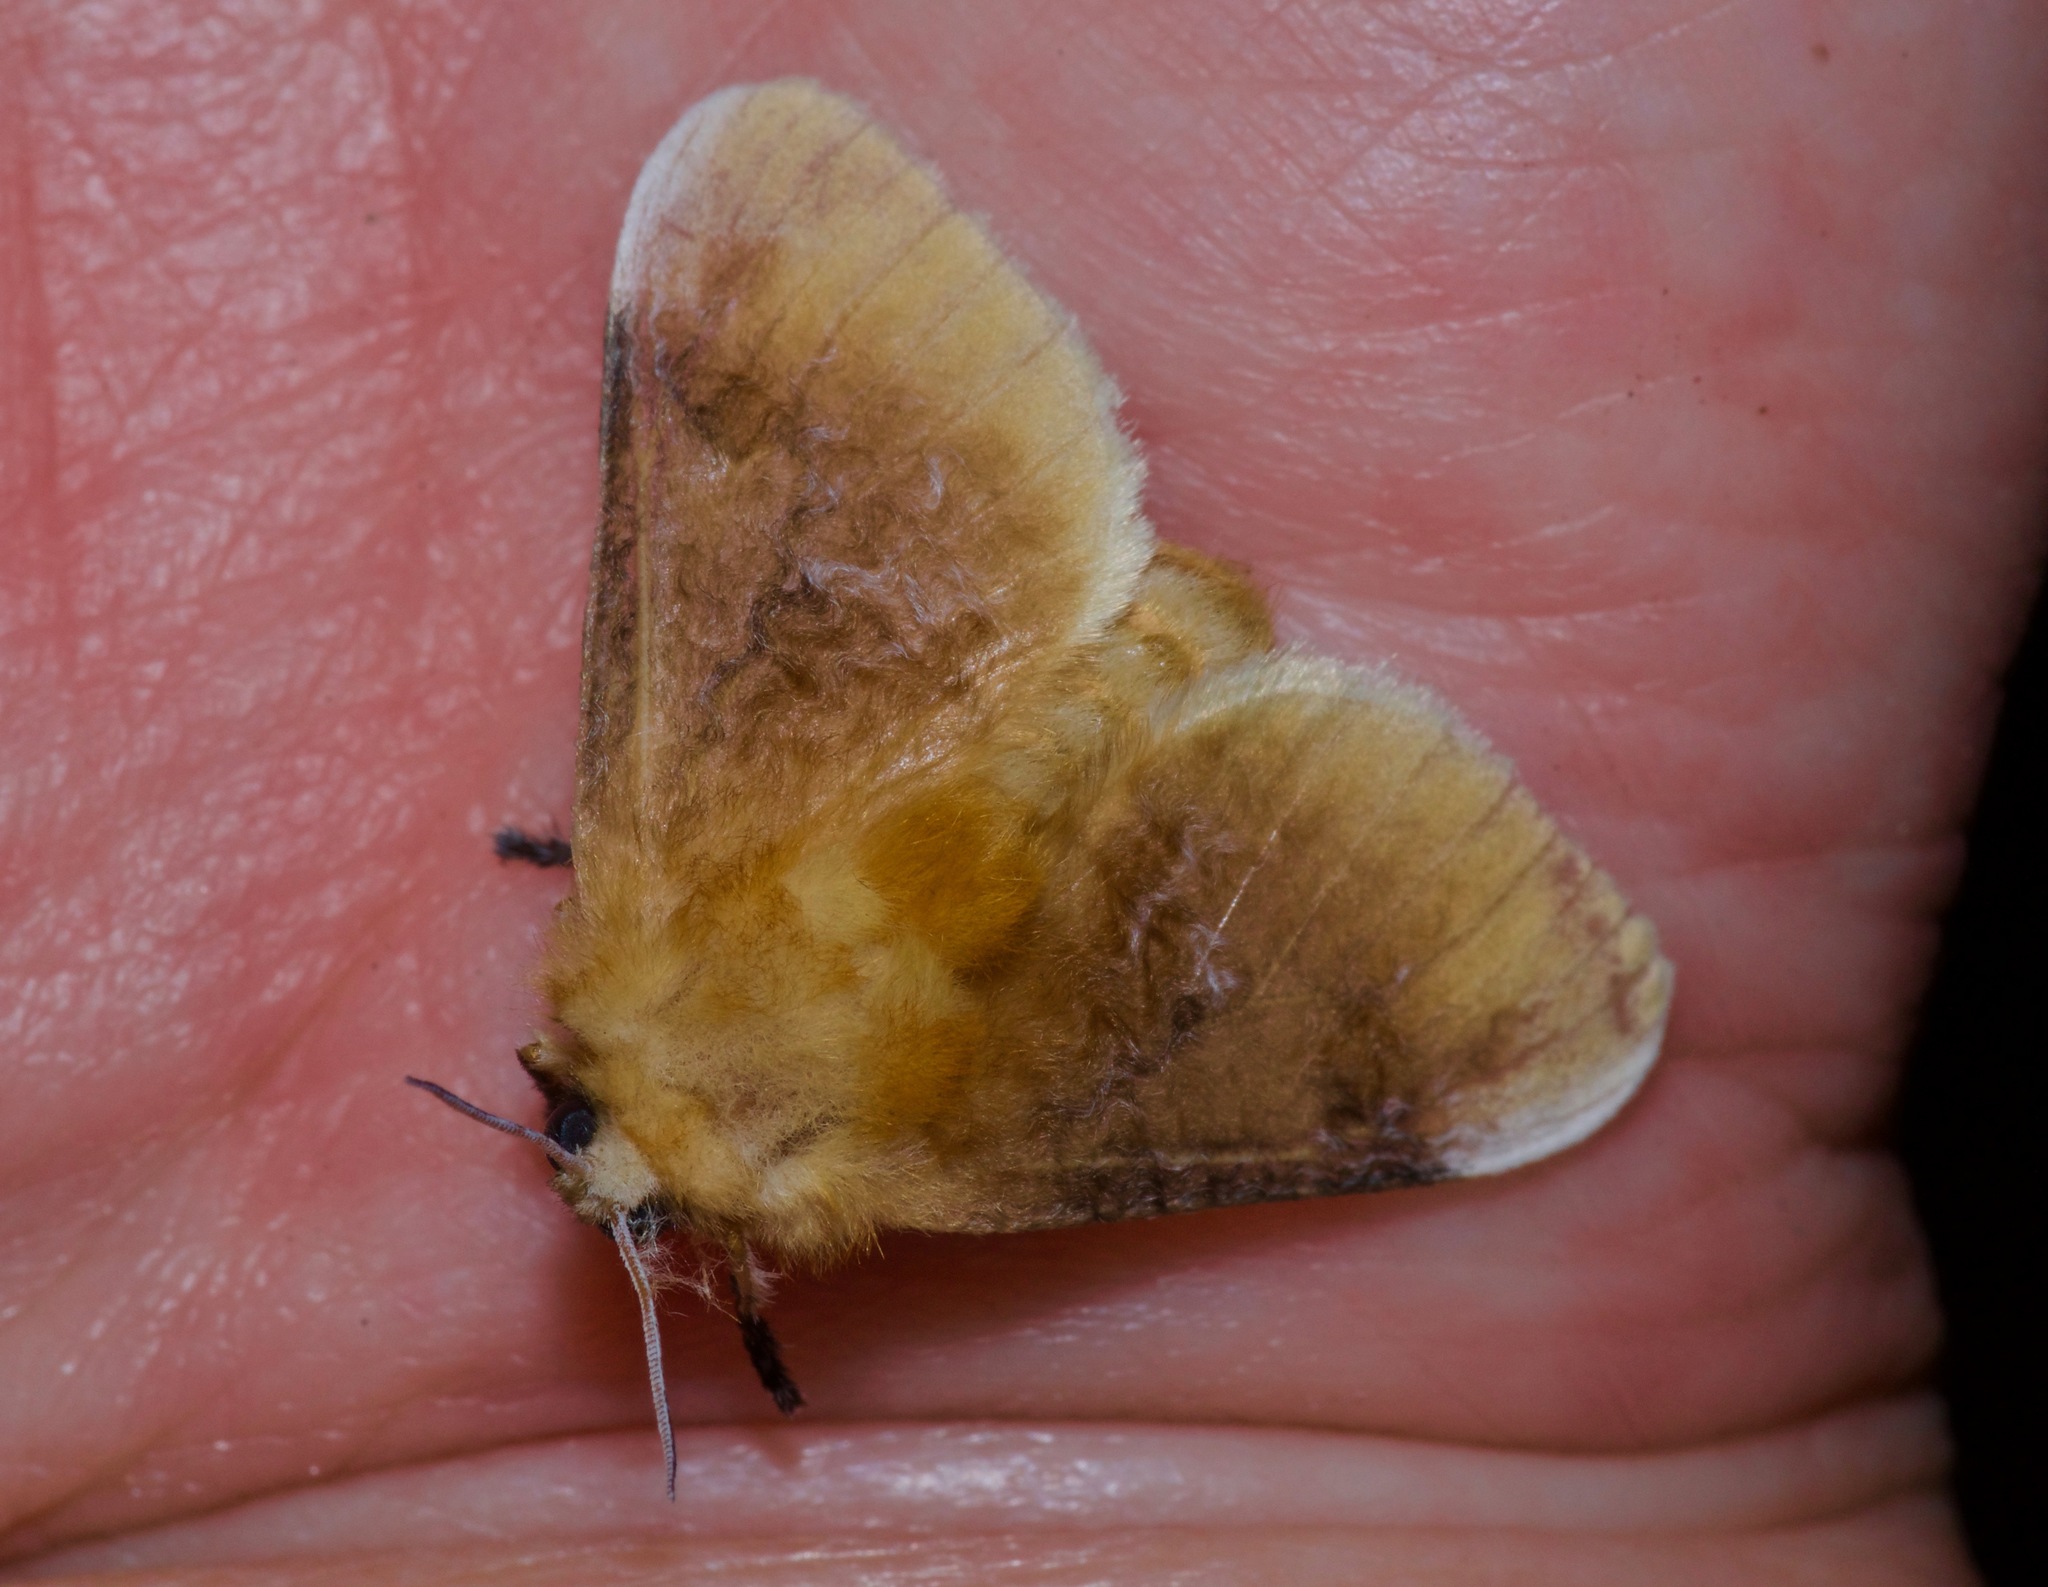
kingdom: Animalia
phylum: Arthropoda
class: Insecta
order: Lepidoptera
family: Megalopygidae
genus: Megalopyge
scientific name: Megalopyge opercularis
